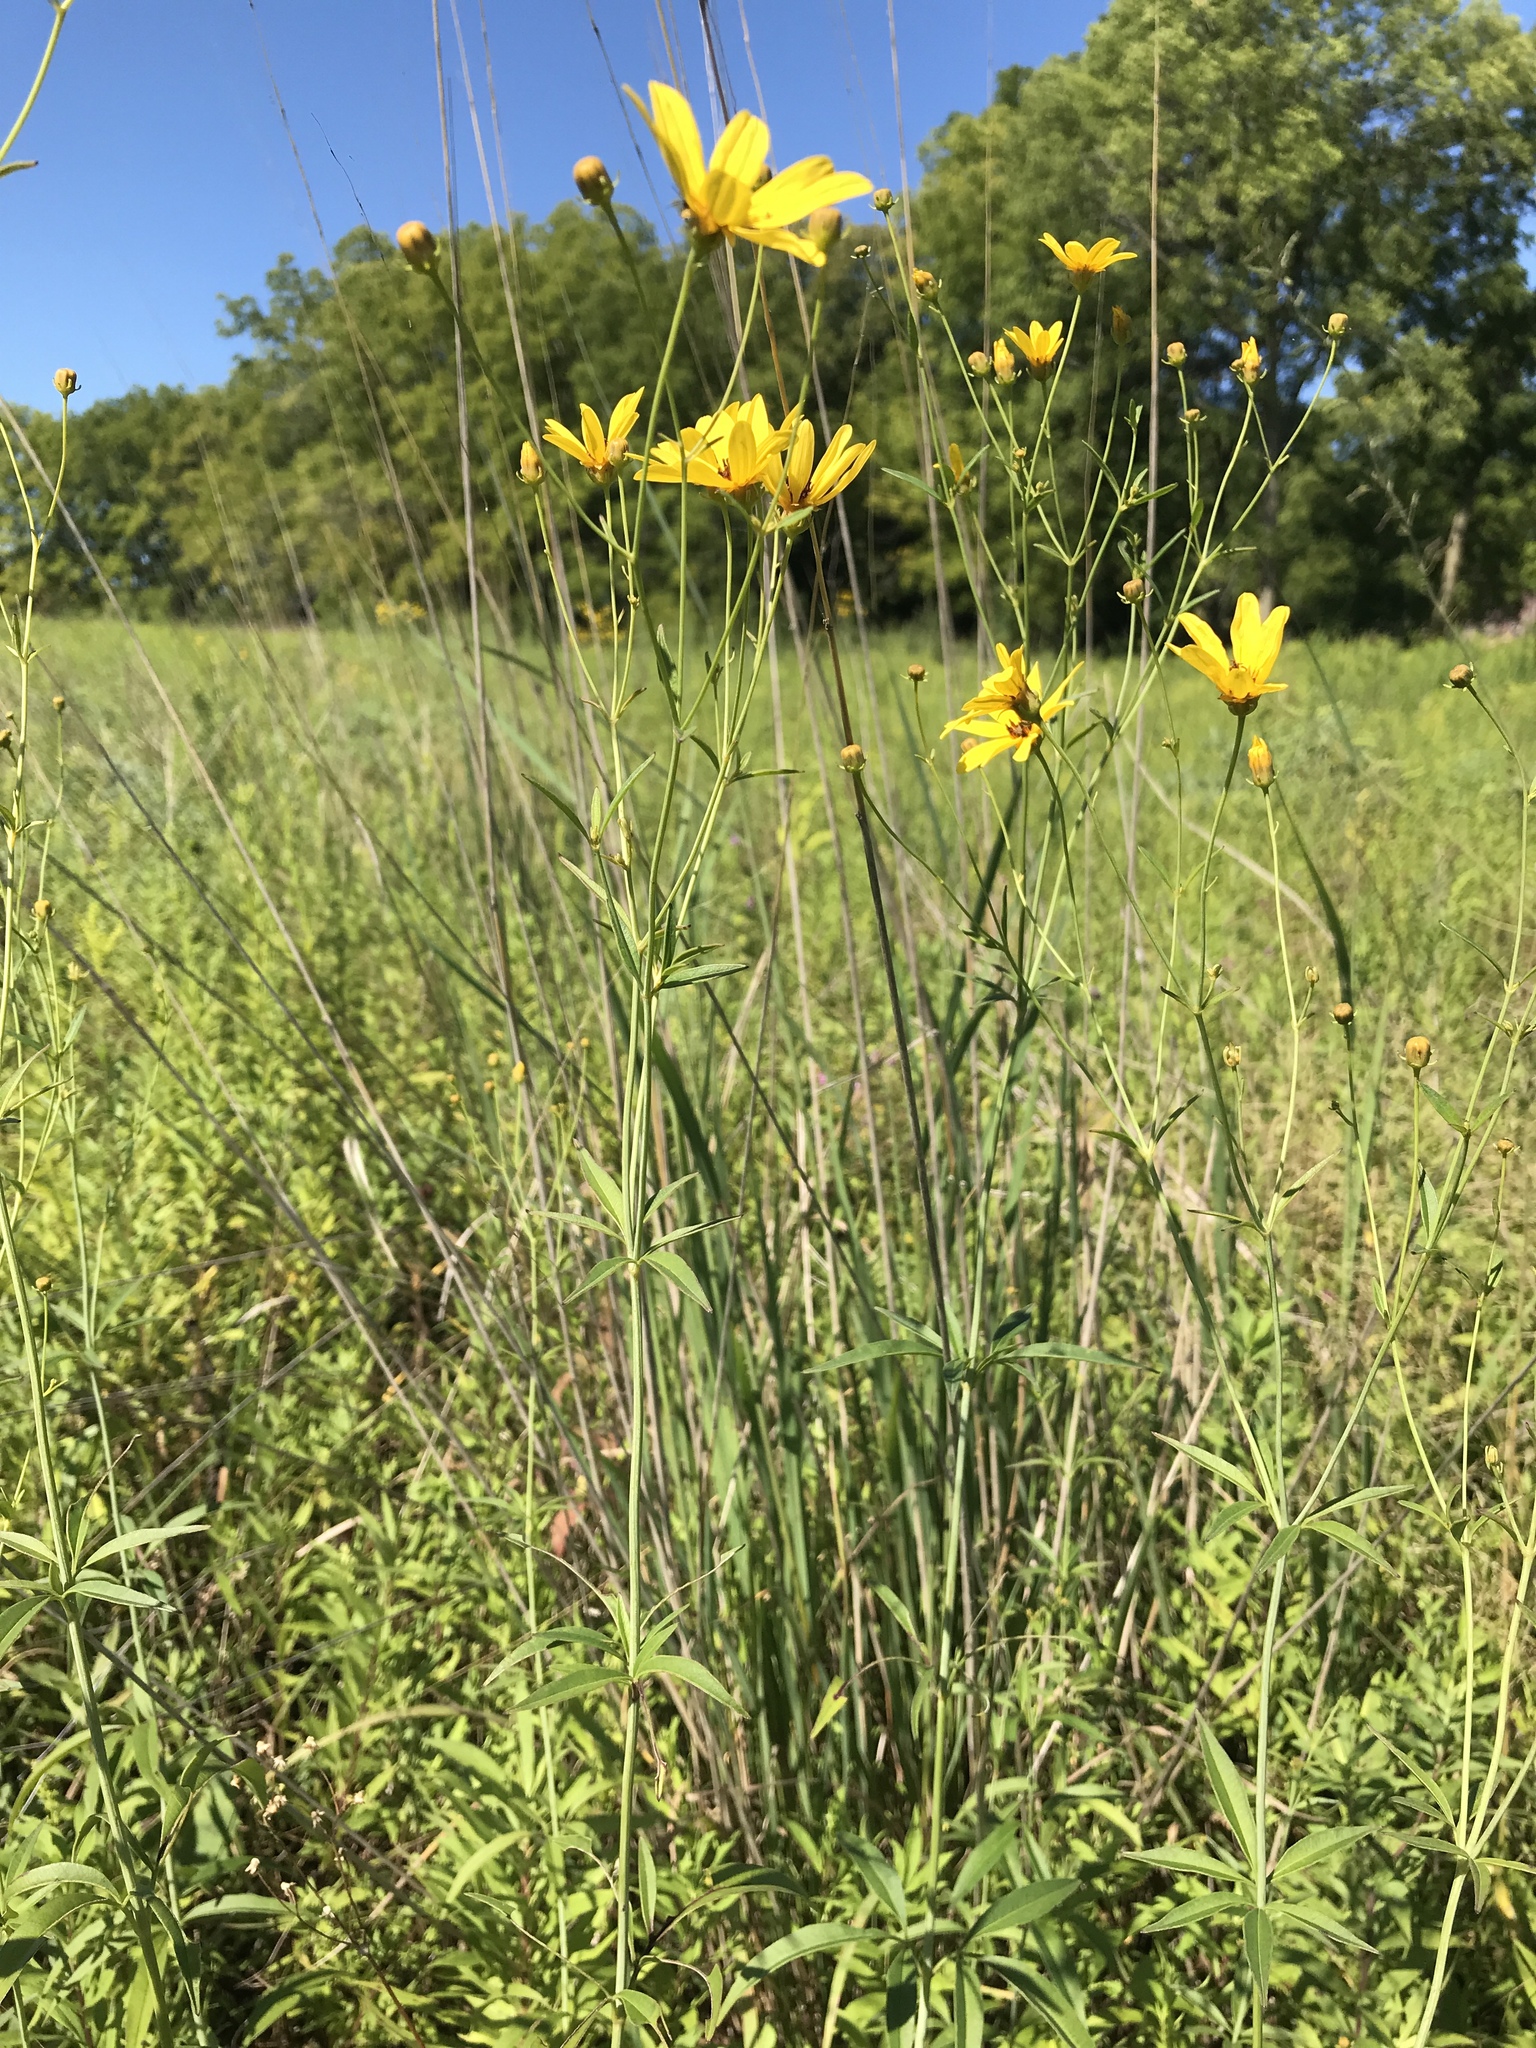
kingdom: Plantae
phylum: Tracheophyta
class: Magnoliopsida
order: Asterales
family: Asteraceae
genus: Coreopsis
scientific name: Coreopsis tripteris
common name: Tall coreopsis
